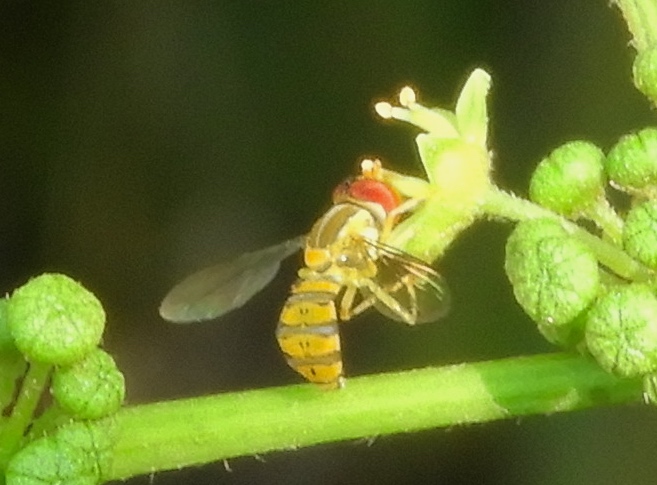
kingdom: Animalia
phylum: Arthropoda
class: Insecta
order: Diptera
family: Syrphidae
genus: Toxomerus
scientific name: Toxomerus
